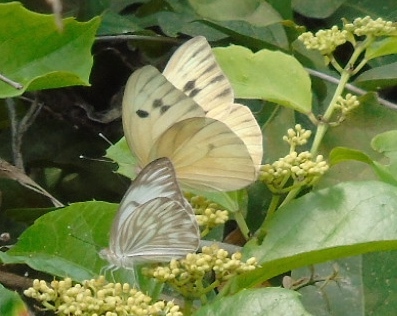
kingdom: Animalia
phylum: Arthropoda
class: Insecta
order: Lepidoptera
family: Pieridae
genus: Ganyra
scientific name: Ganyra josephina
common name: Giant white
